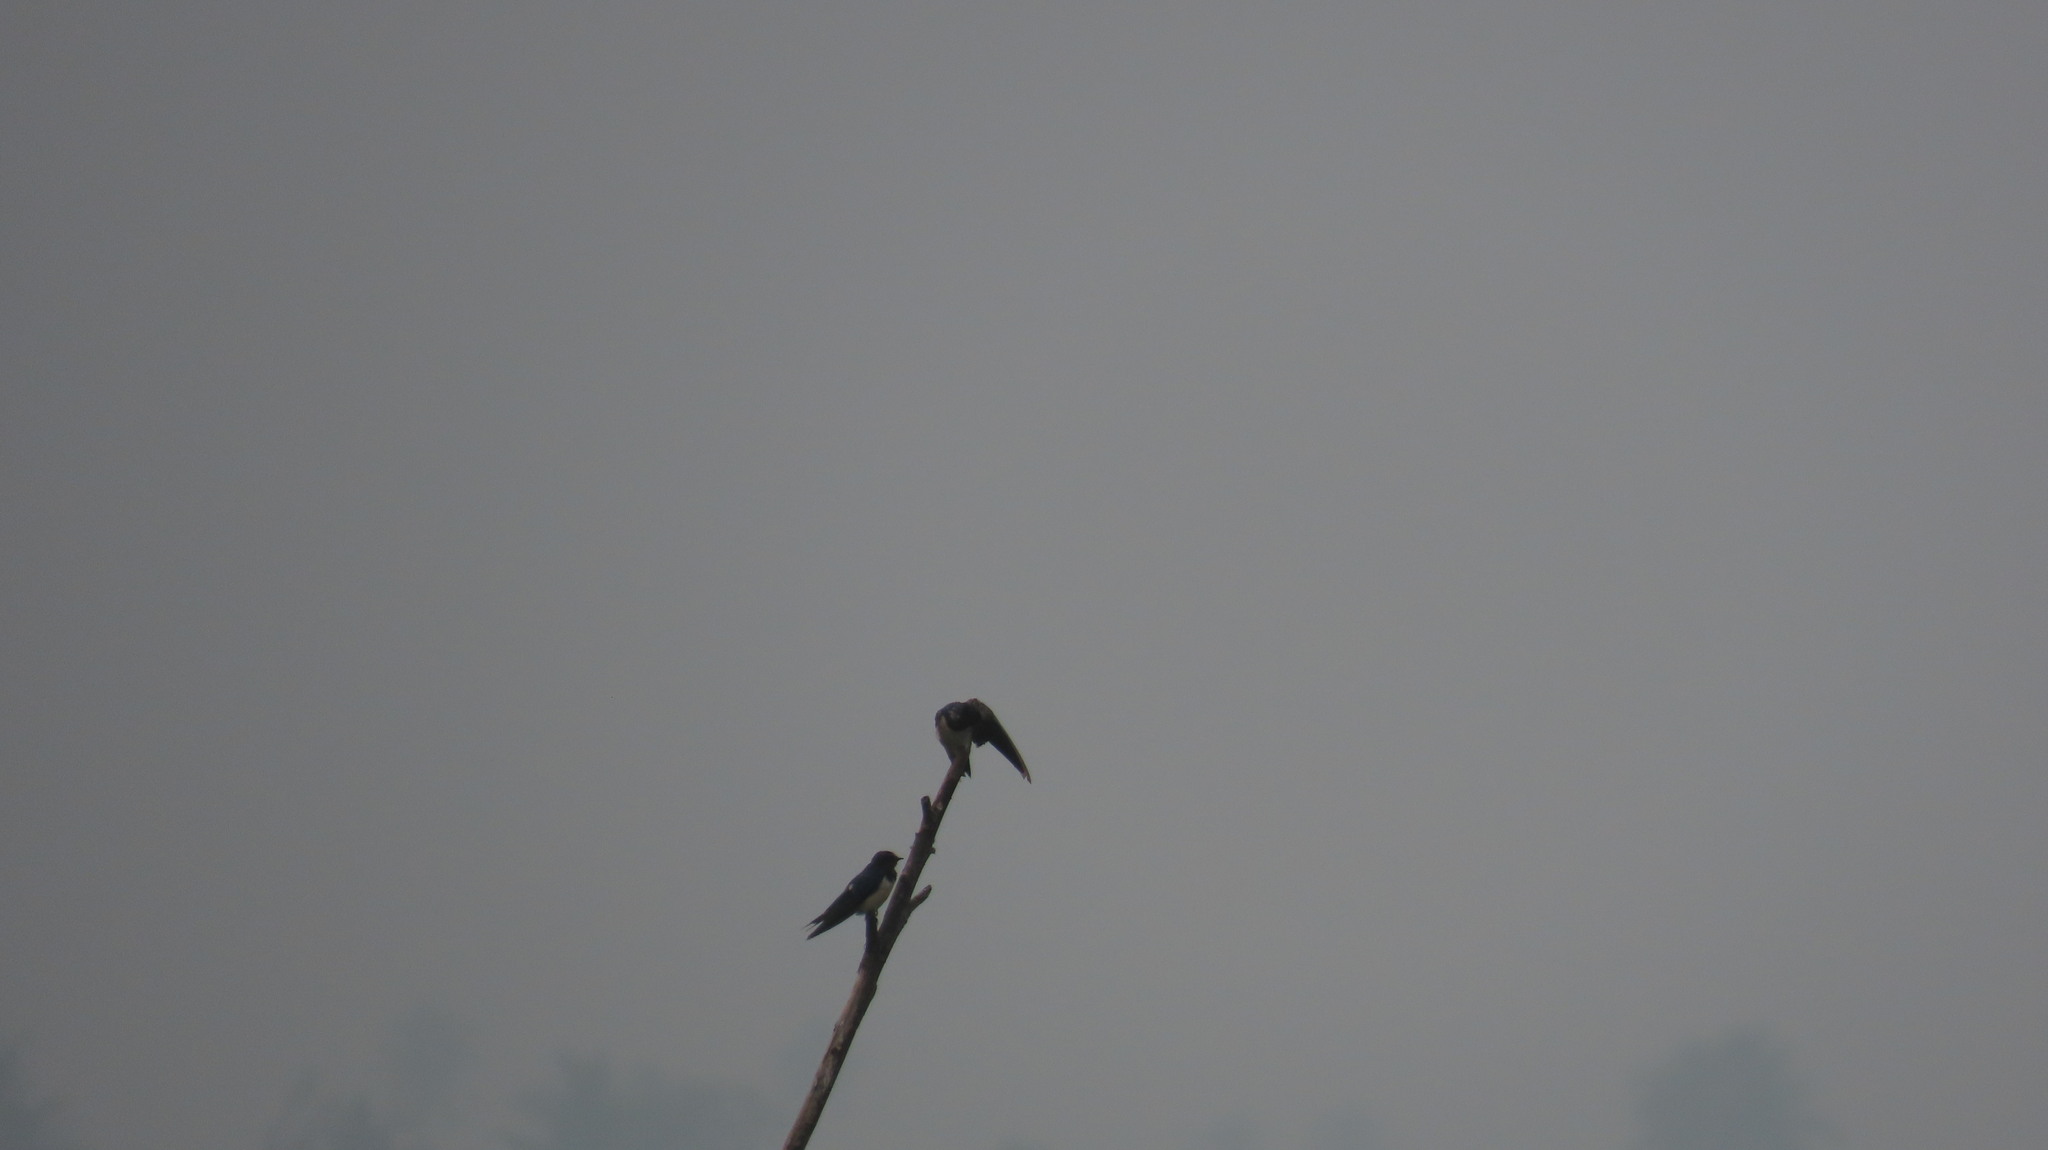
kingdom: Animalia
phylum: Chordata
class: Aves
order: Passeriformes
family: Hirundinidae
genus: Hirundo
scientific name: Hirundo rustica
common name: Barn swallow
